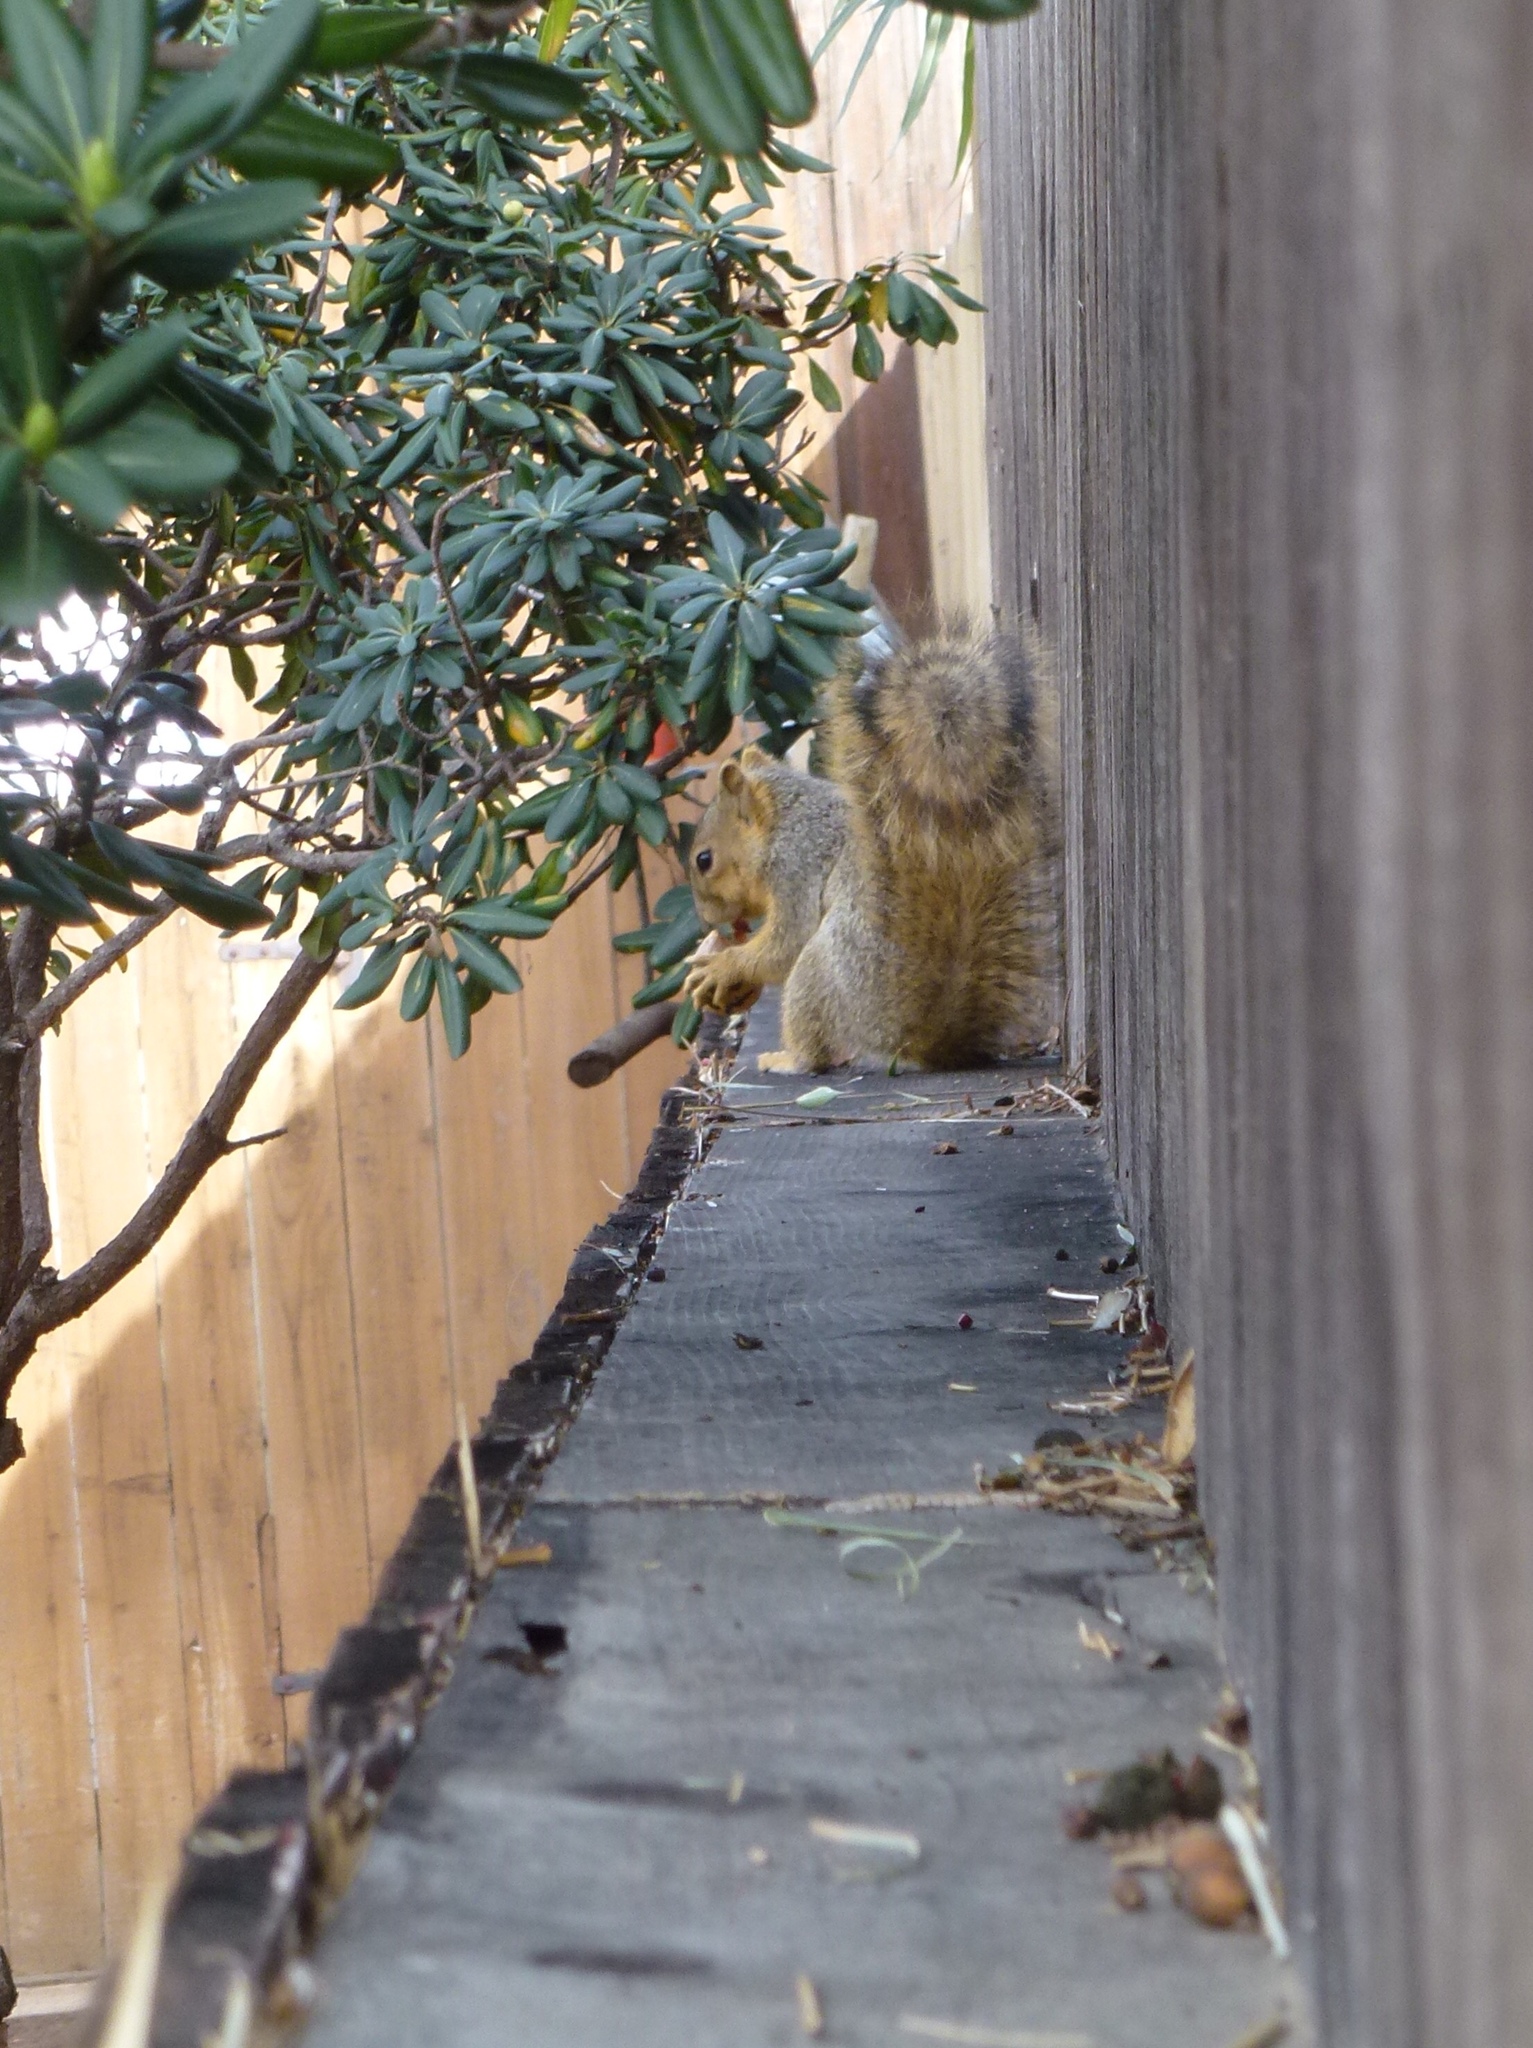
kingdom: Animalia
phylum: Chordata
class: Mammalia
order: Rodentia
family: Sciuridae
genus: Sciurus
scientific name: Sciurus niger
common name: Fox squirrel
